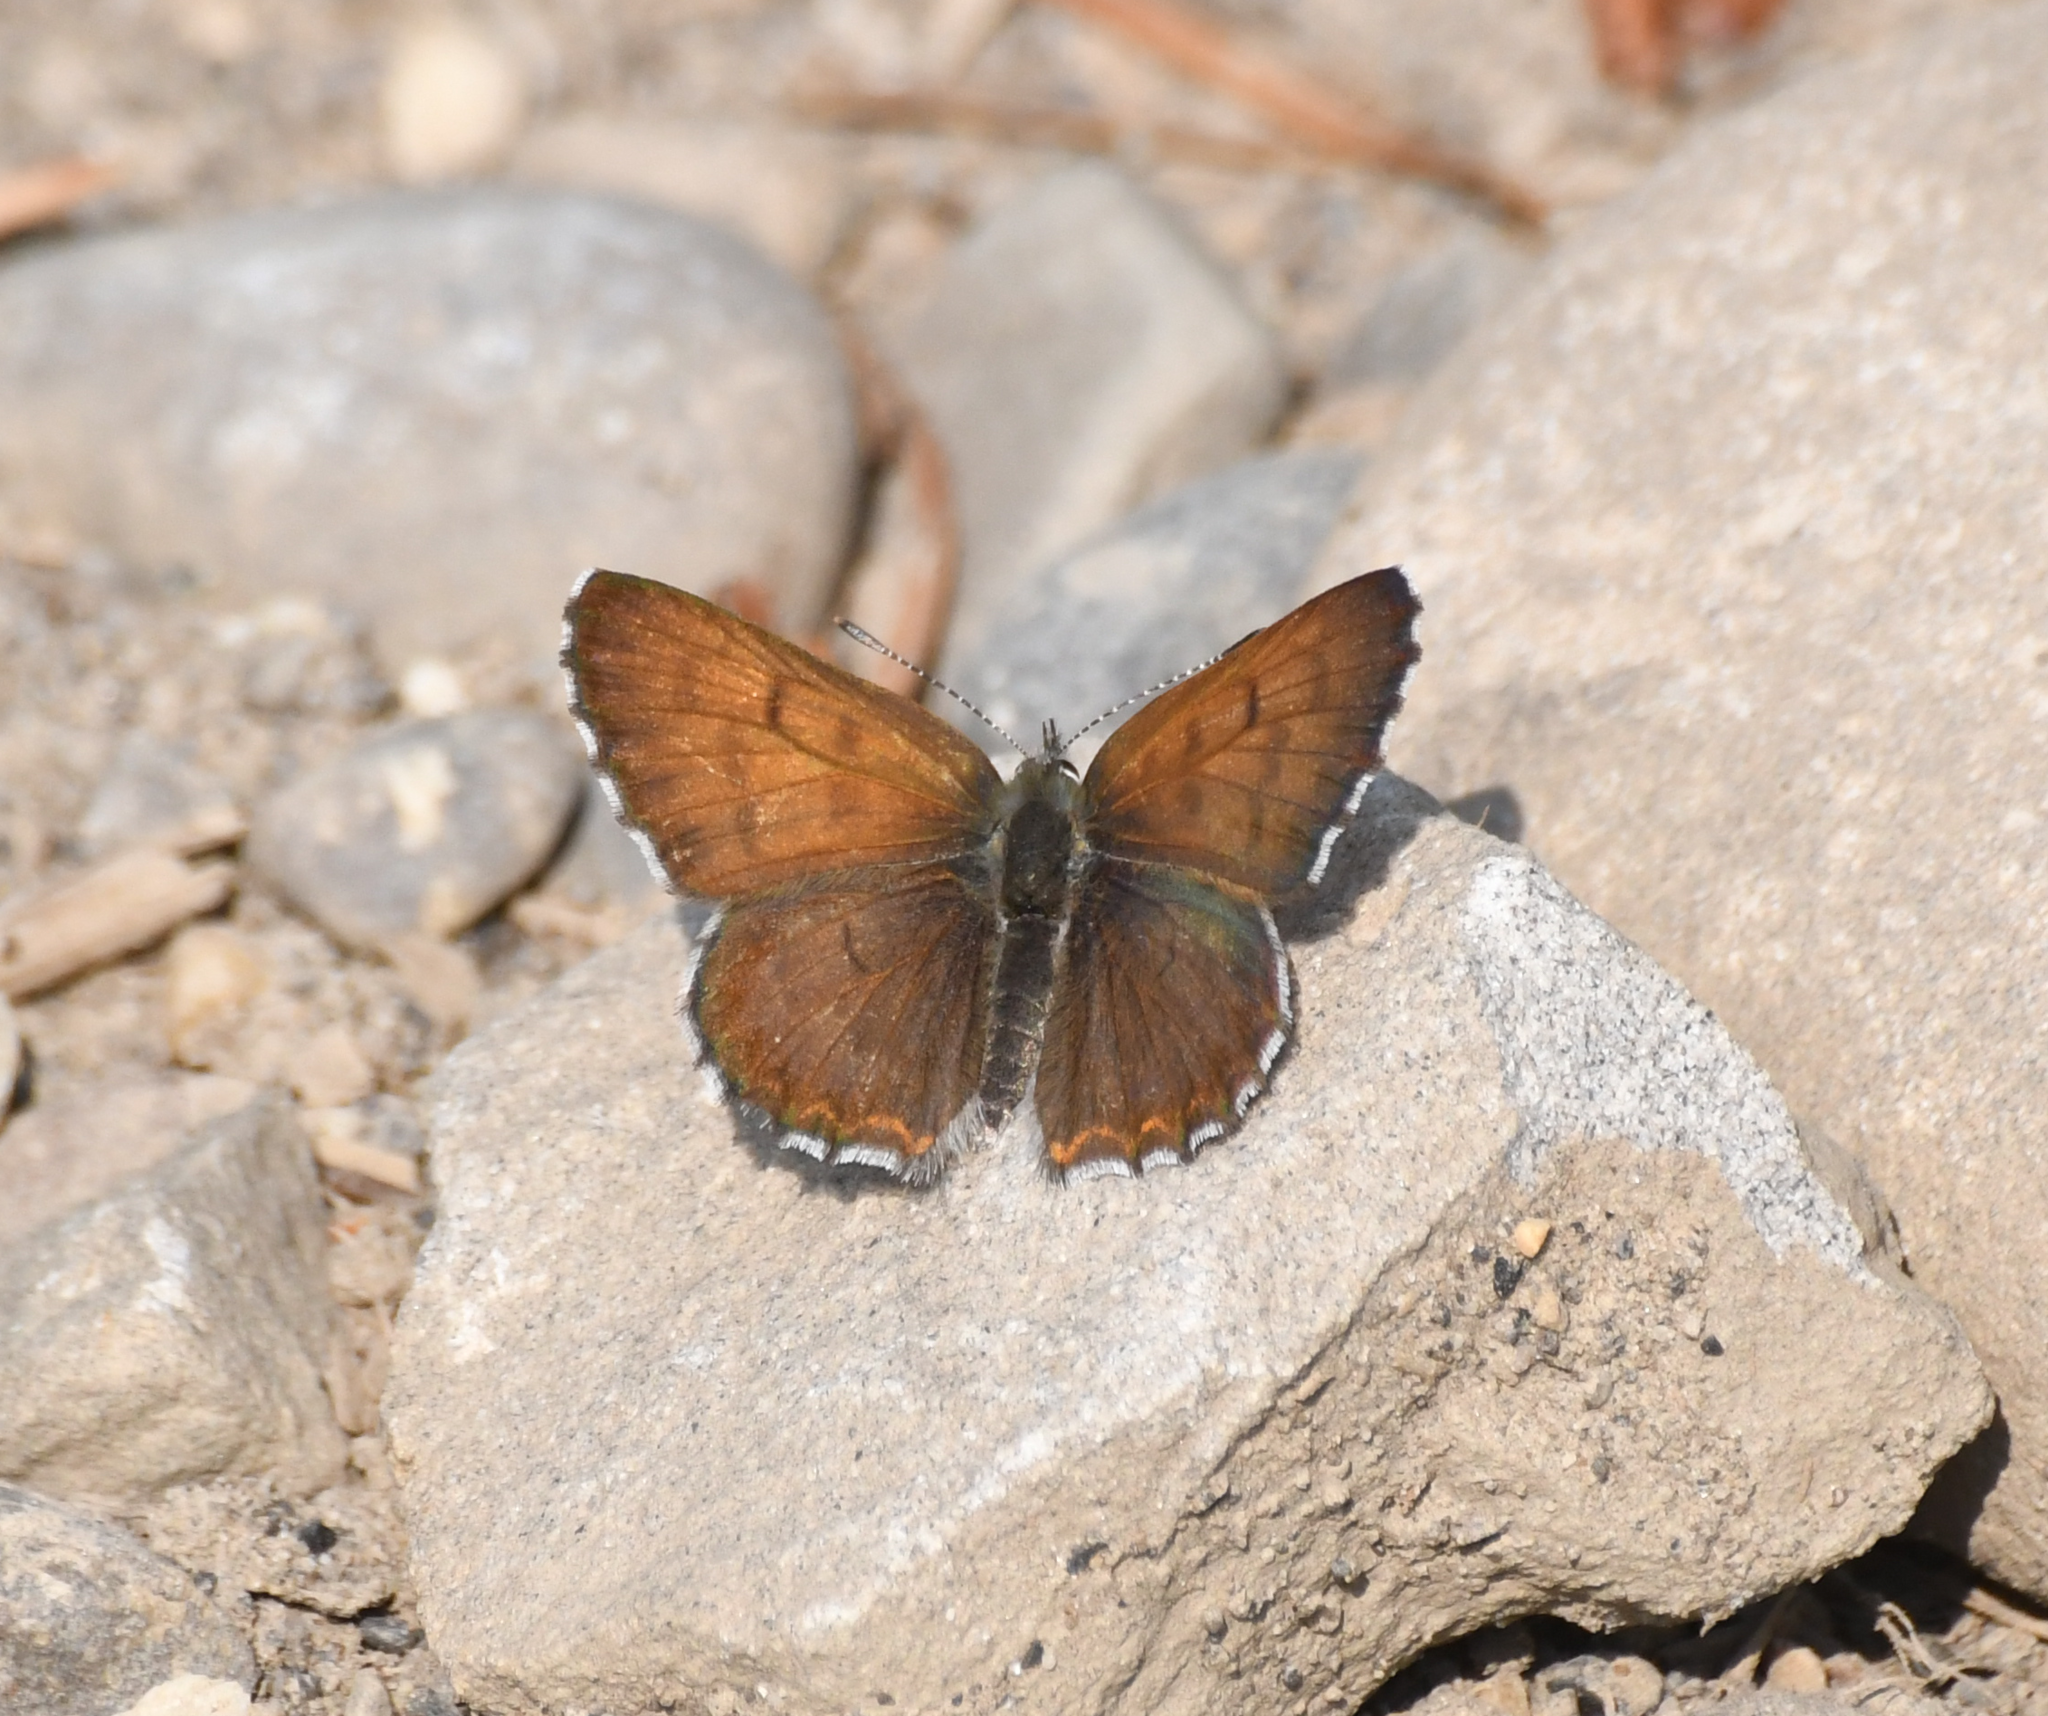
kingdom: Animalia
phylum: Arthropoda
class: Insecta
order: Lepidoptera
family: Lycaenidae
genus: Tharsalea
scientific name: Tharsalea mariposa
